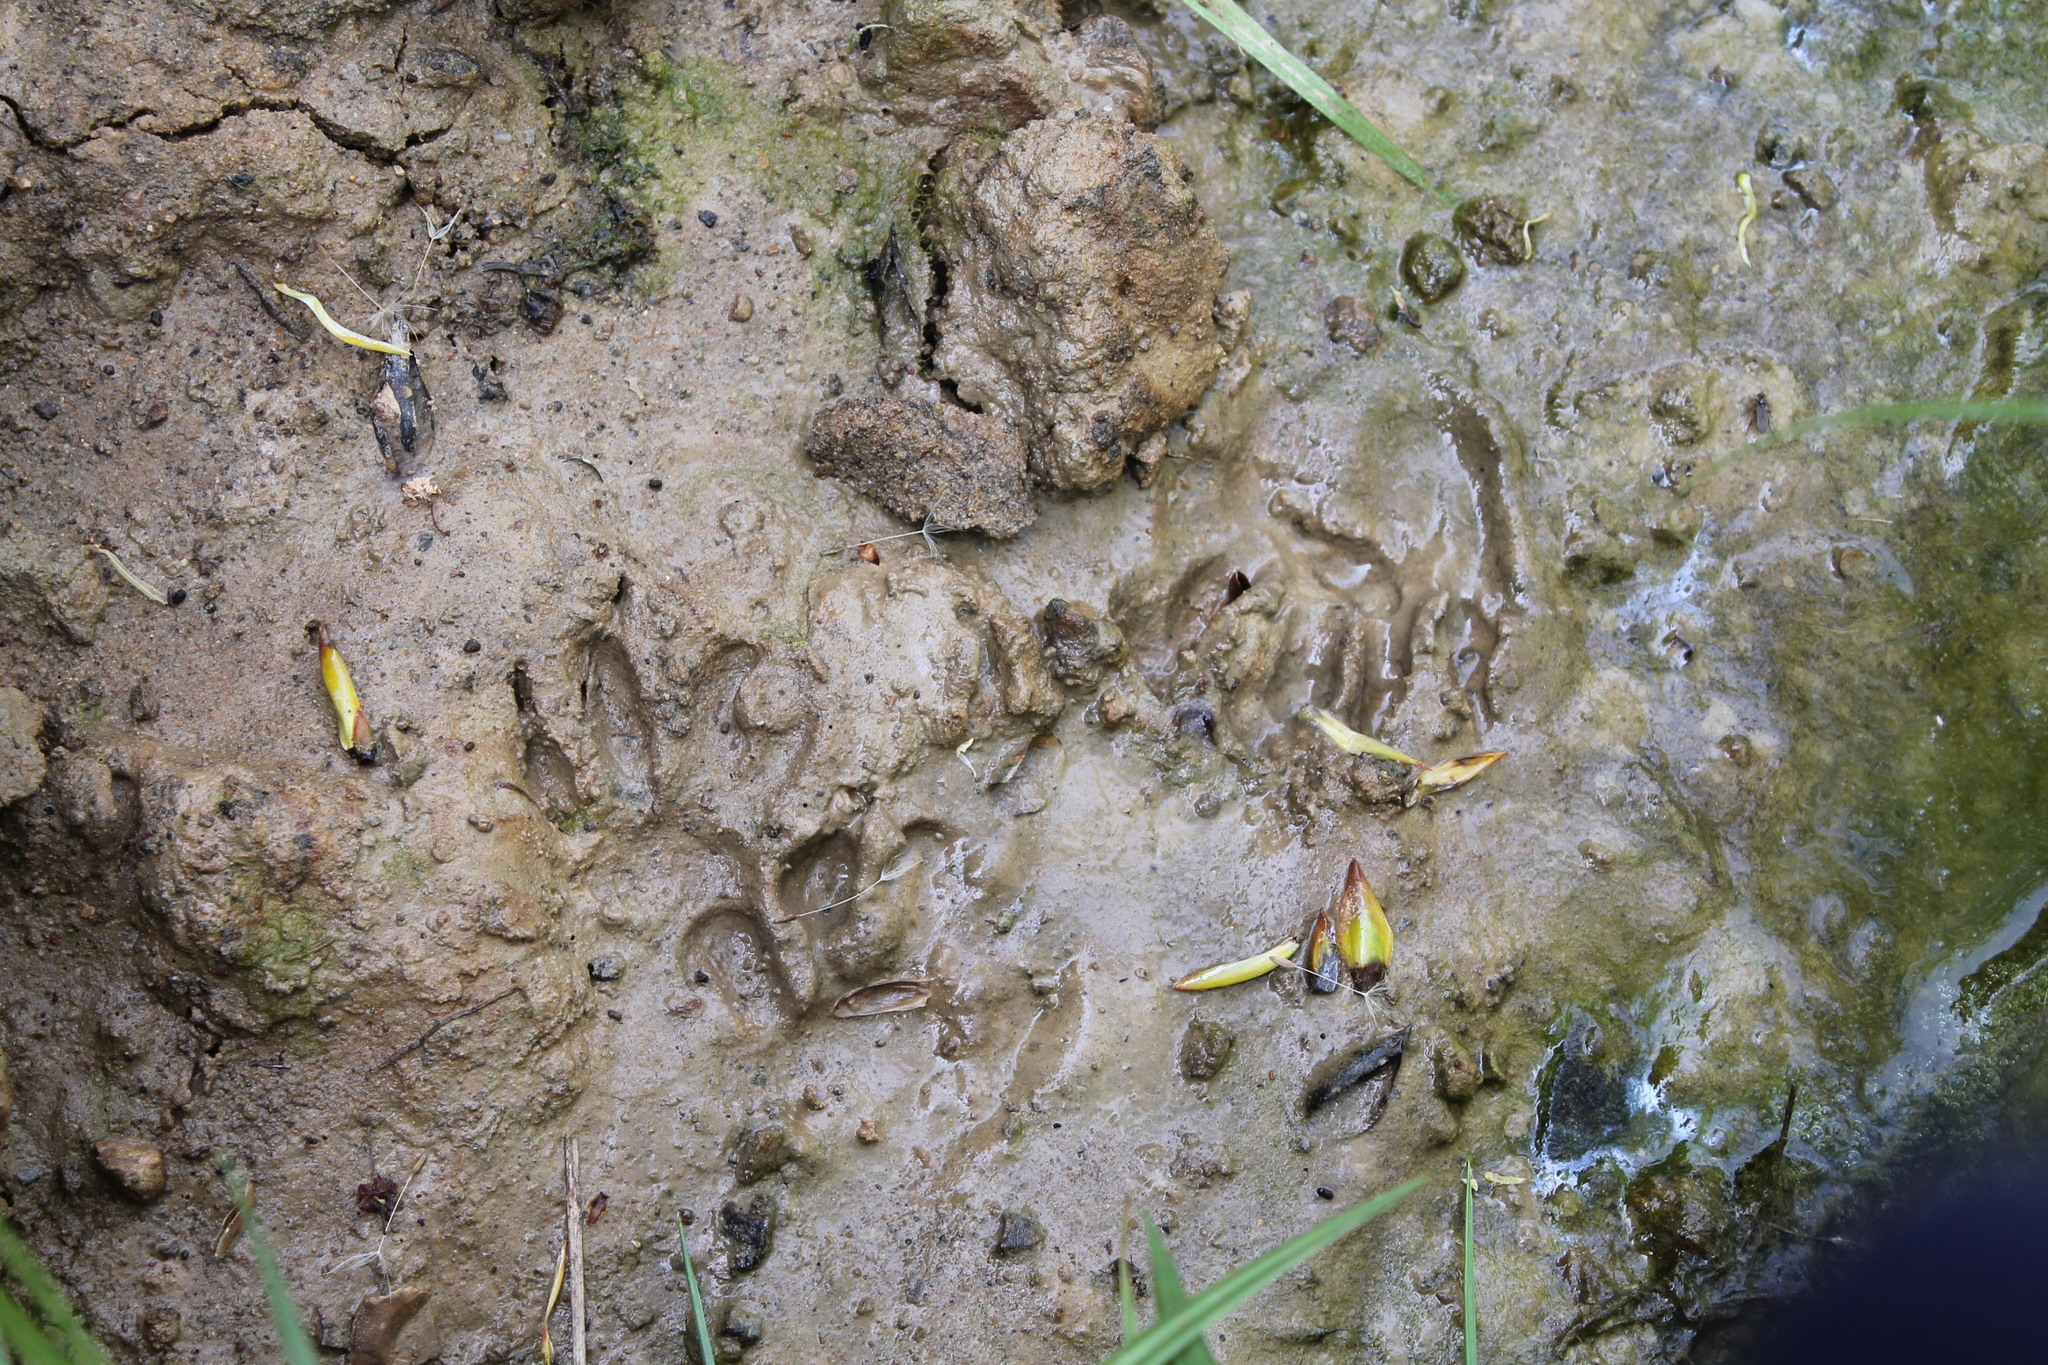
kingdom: Animalia
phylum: Chordata
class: Mammalia
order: Carnivora
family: Procyonidae
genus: Procyon
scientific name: Procyon lotor
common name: Raccoon
